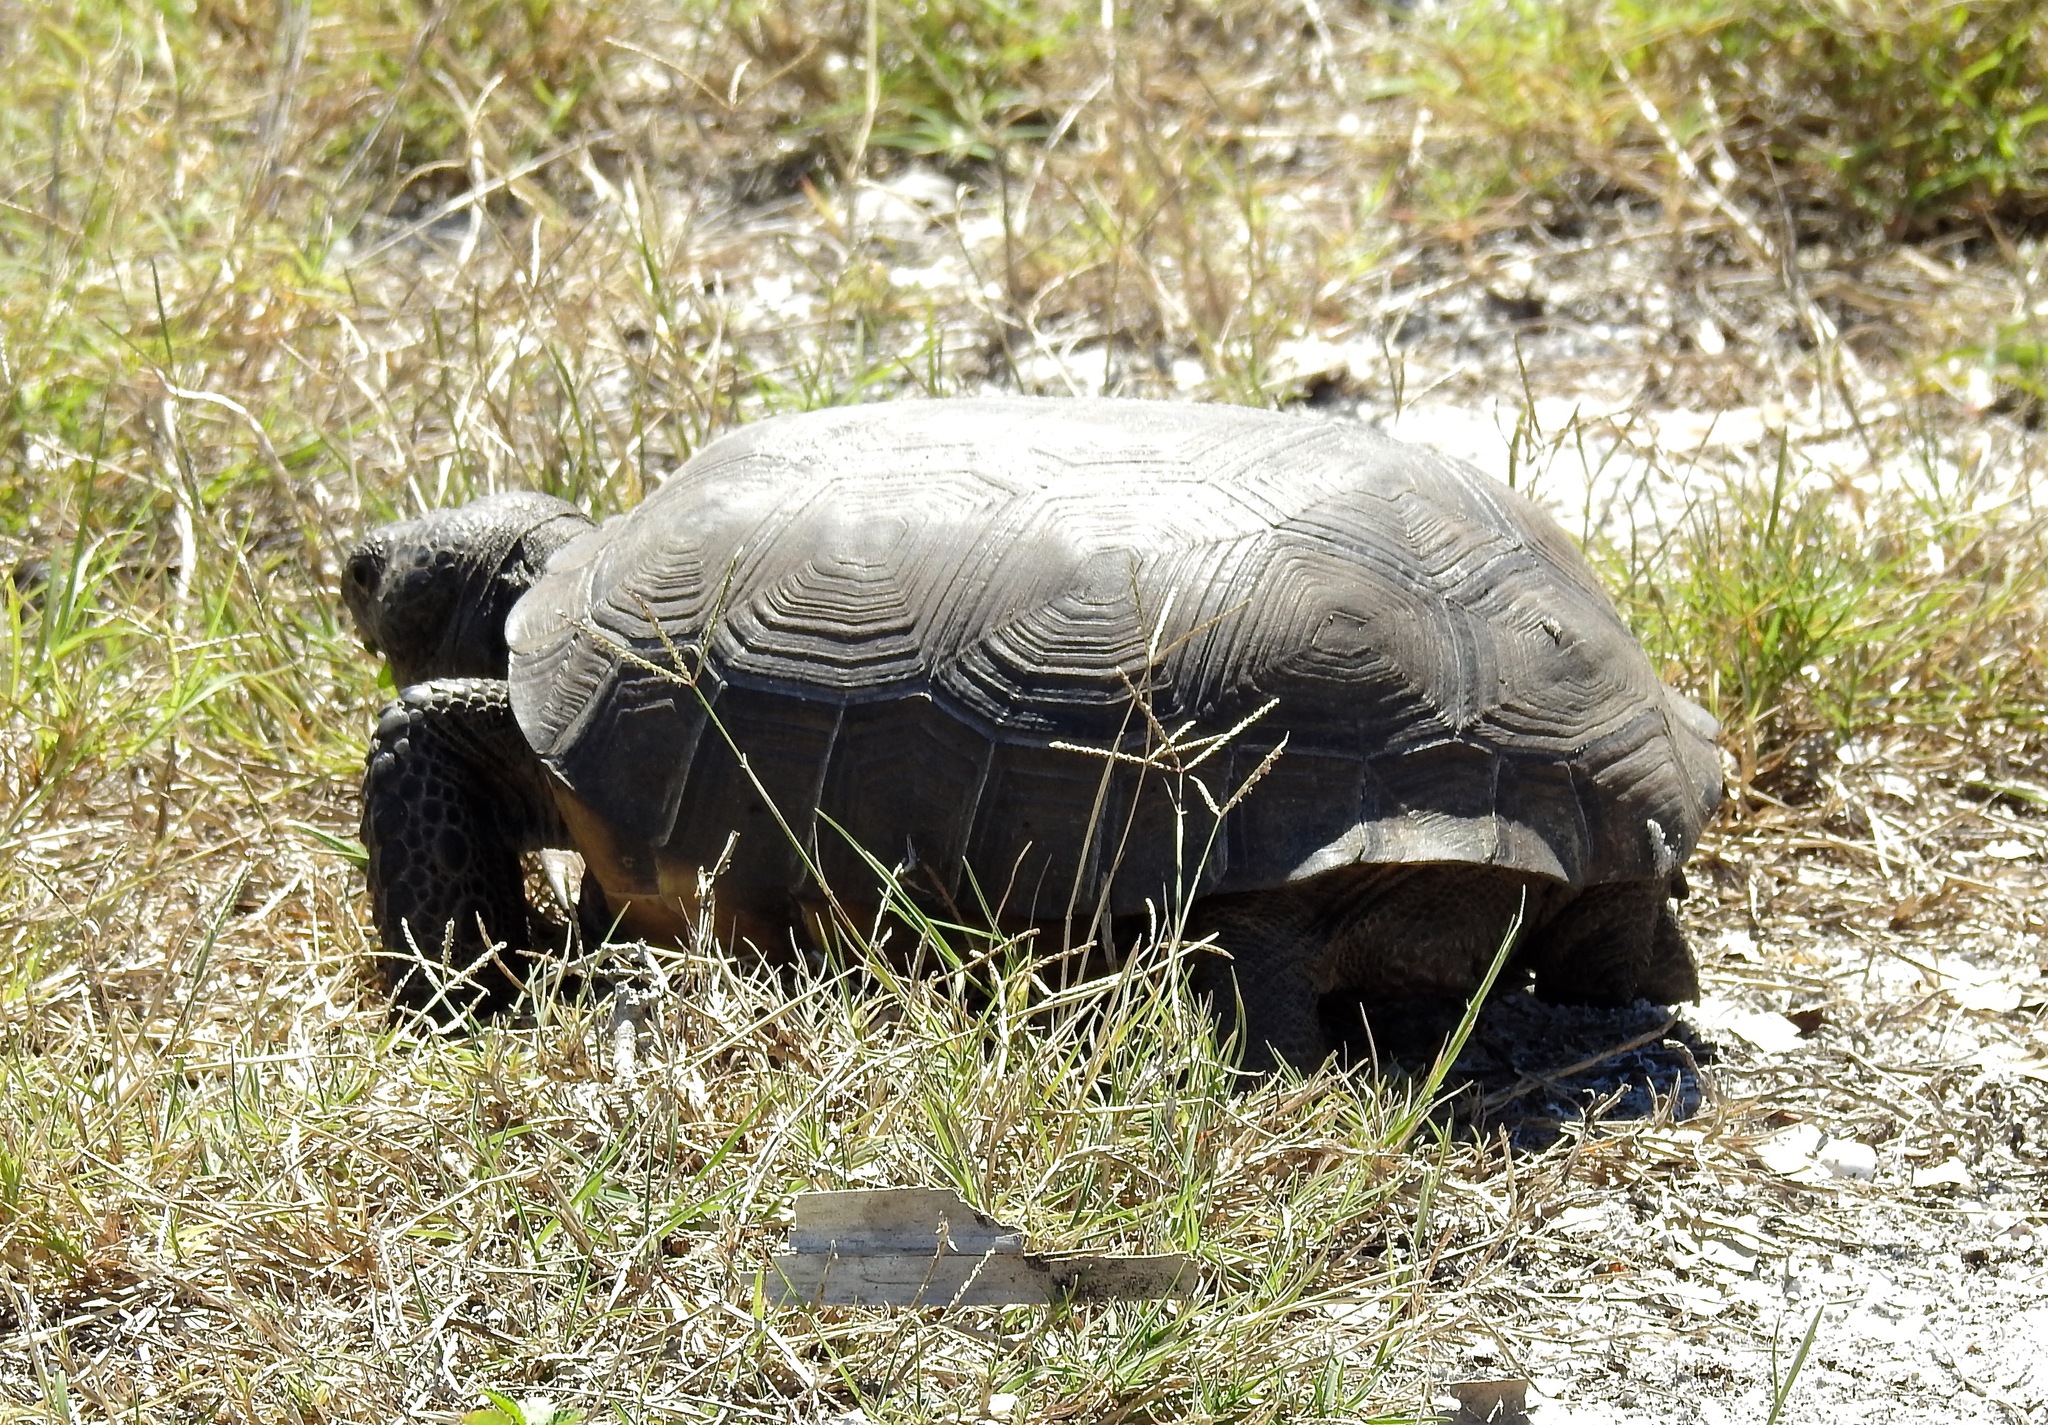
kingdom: Animalia
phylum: Chordata
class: Testudines
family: Testudinidae
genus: Gopherus
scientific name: Gopherus polyphemus
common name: Florida gopher tortoise
